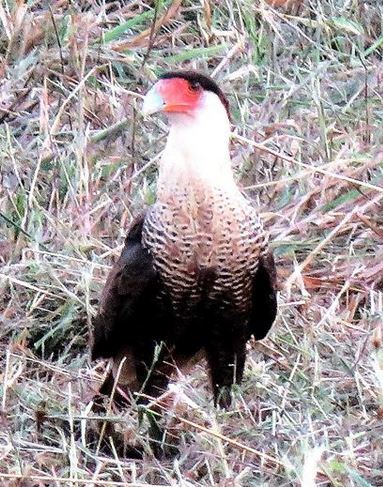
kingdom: Animalia
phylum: Chordata
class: Aves
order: Falconiformes
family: Falconidae
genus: Caracara
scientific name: Caracara plancus
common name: Southern caracara
